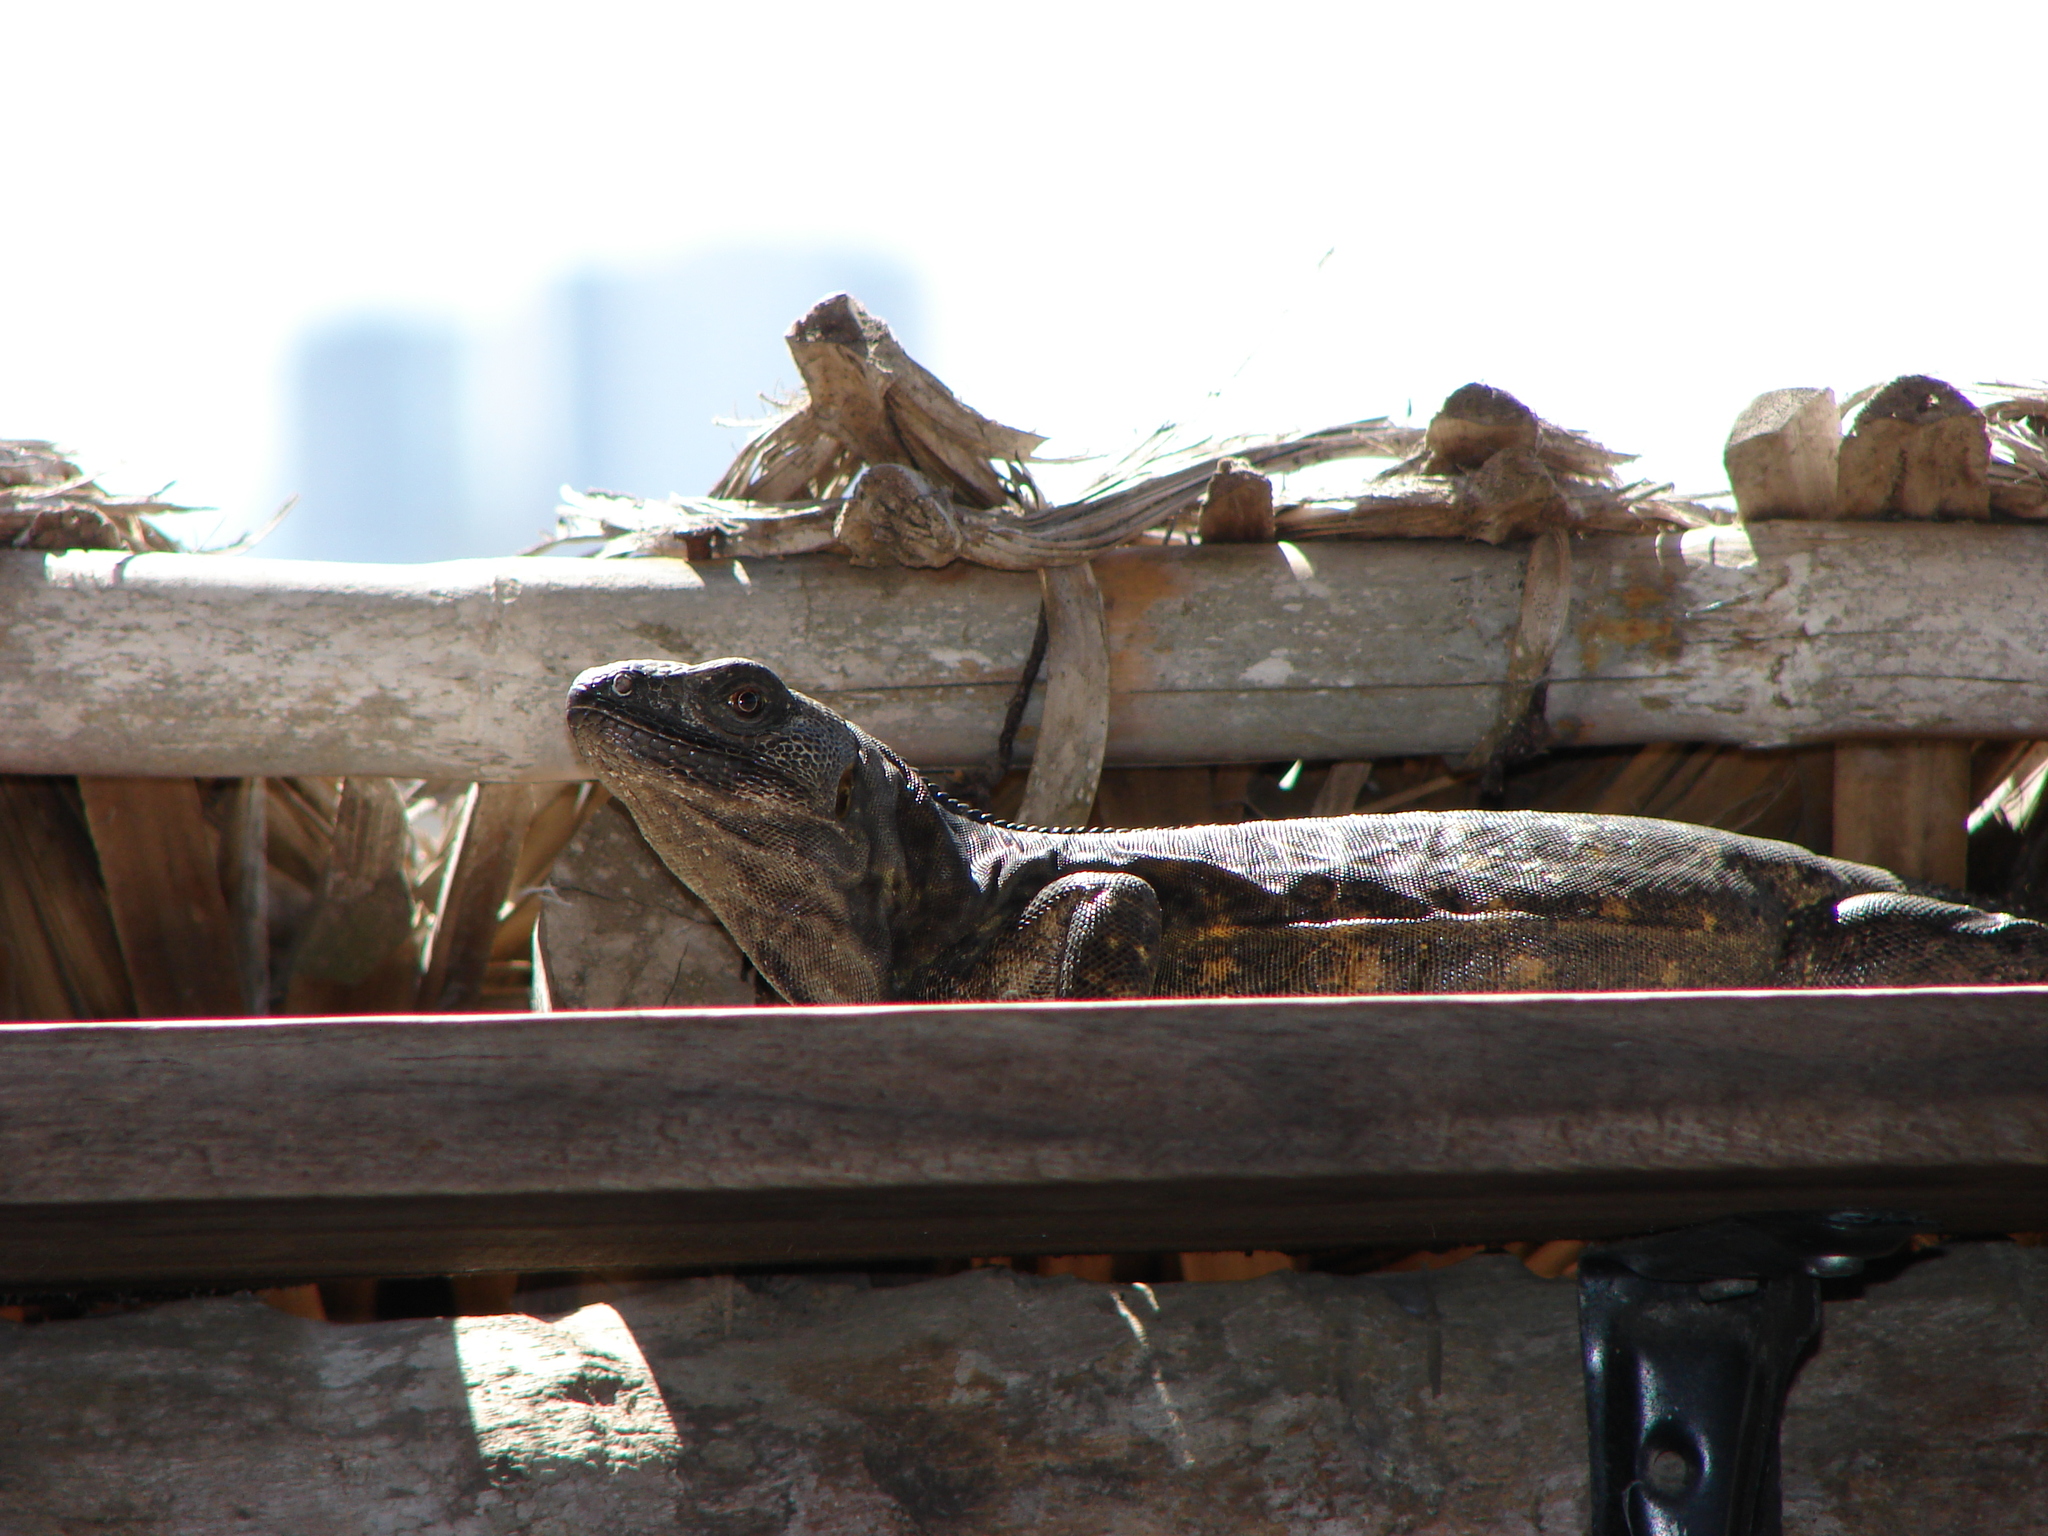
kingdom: Animalia
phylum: Chordata
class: Squamata
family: Iguanidae
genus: Ctenosaura
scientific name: Ctenosaura pectinata
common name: Guerreran spiny-tailed iguana
